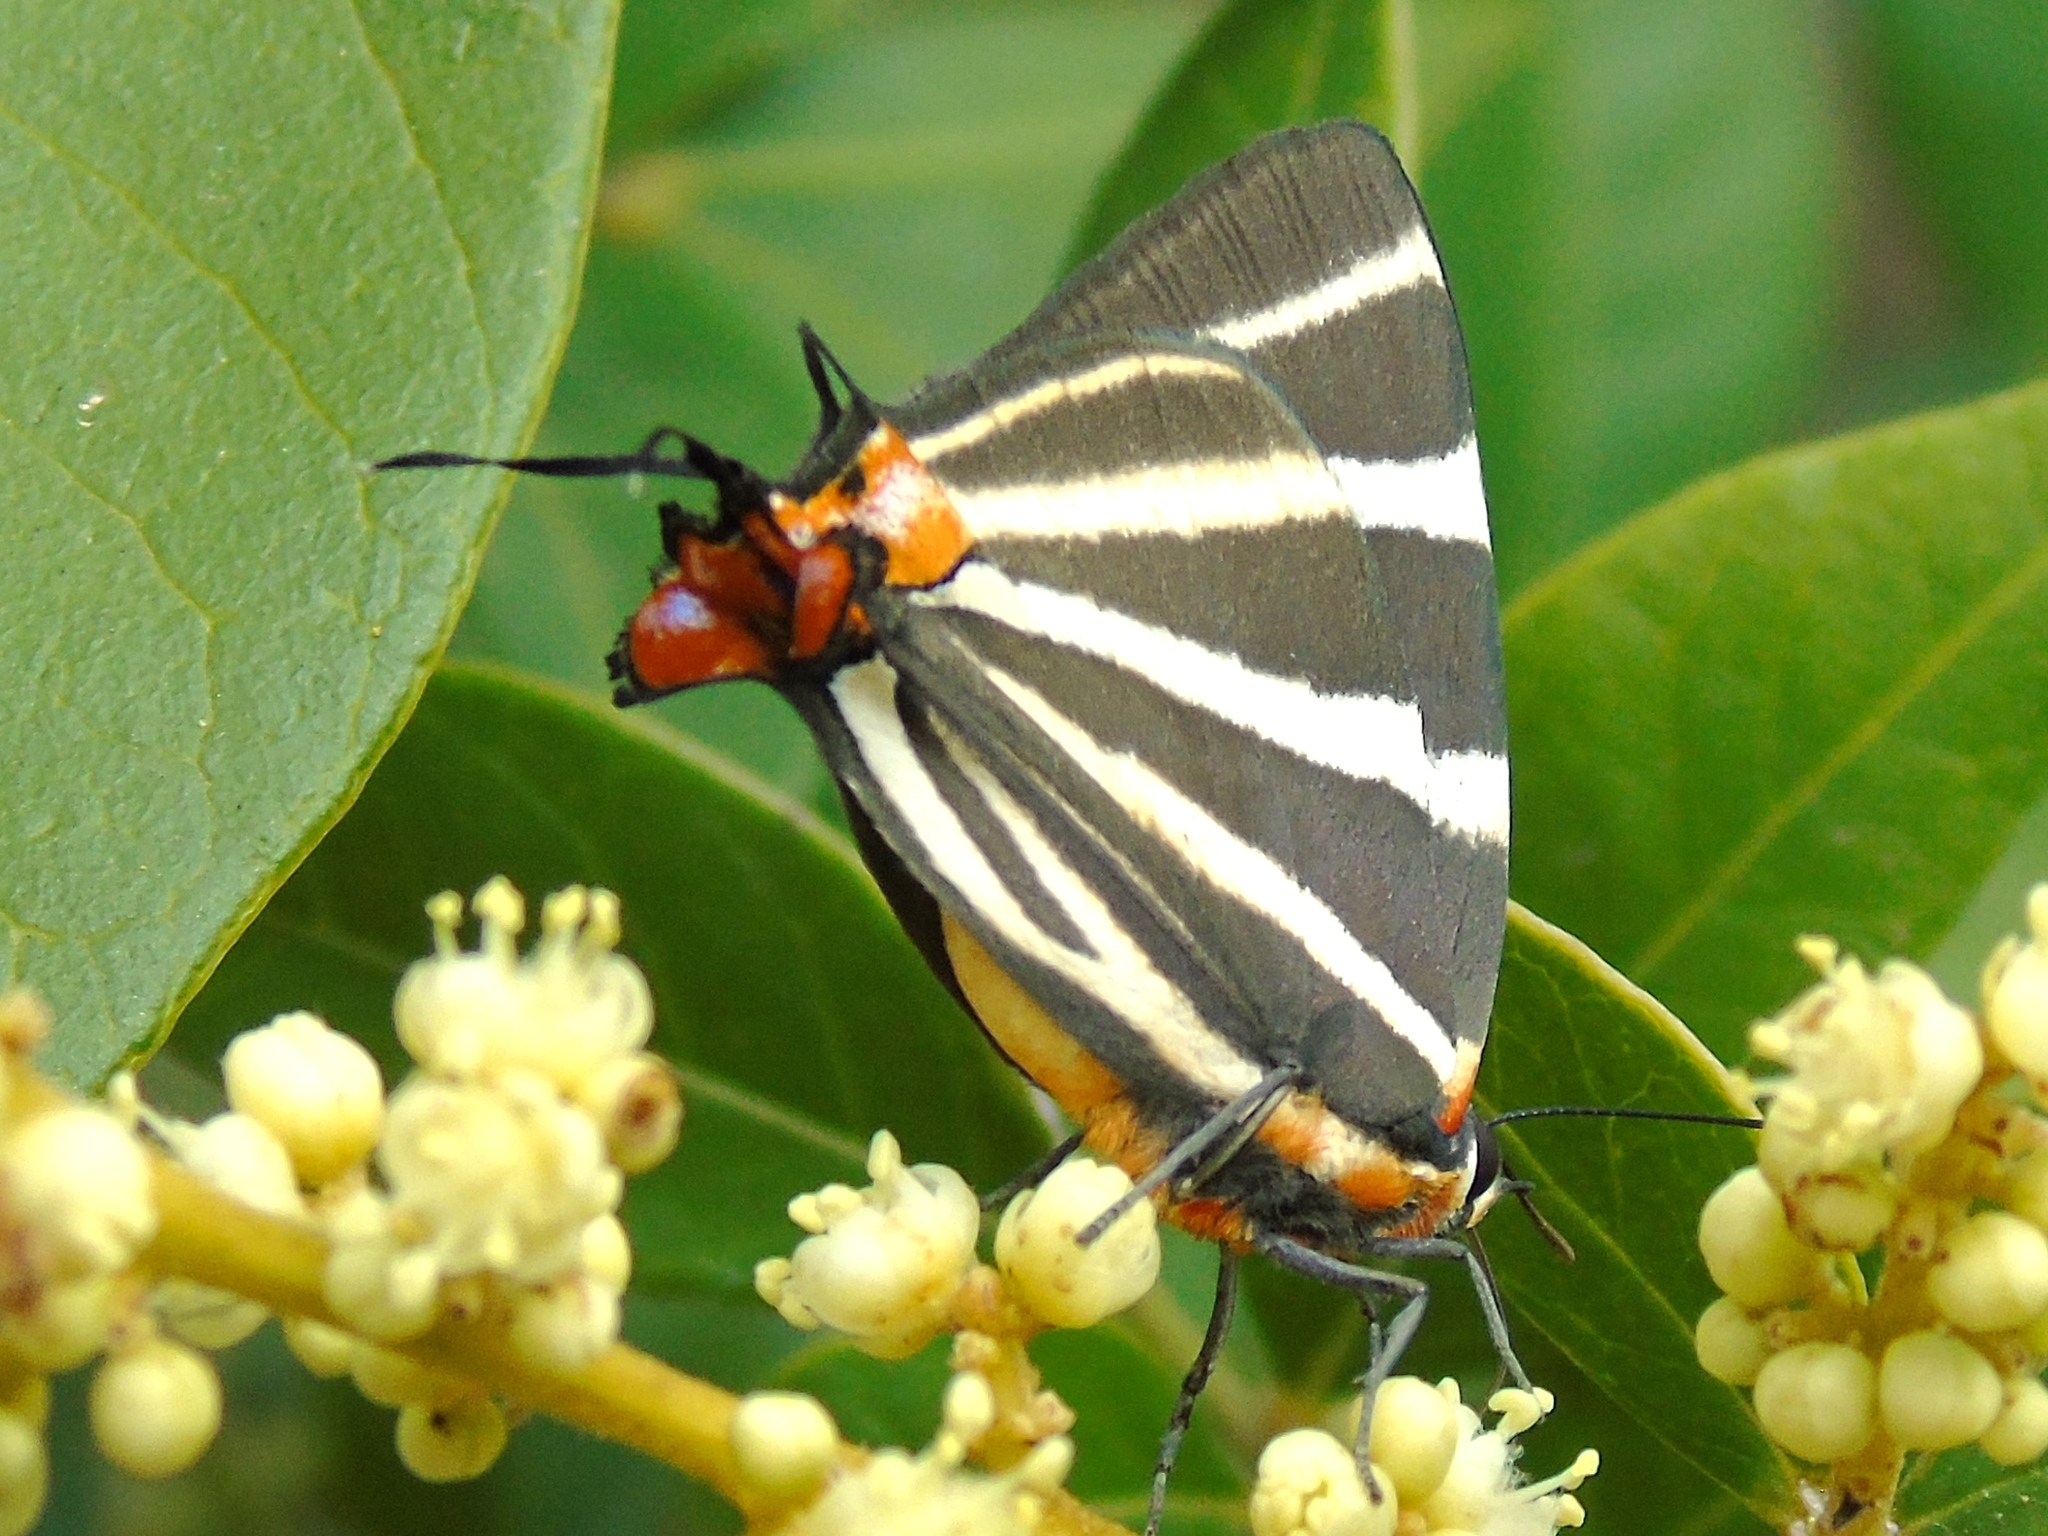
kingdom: Animalia
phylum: Arthropoda
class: Insecta
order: Lepidoptera
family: Lycaenidae
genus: Thecla
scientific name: Thecla bathildis
